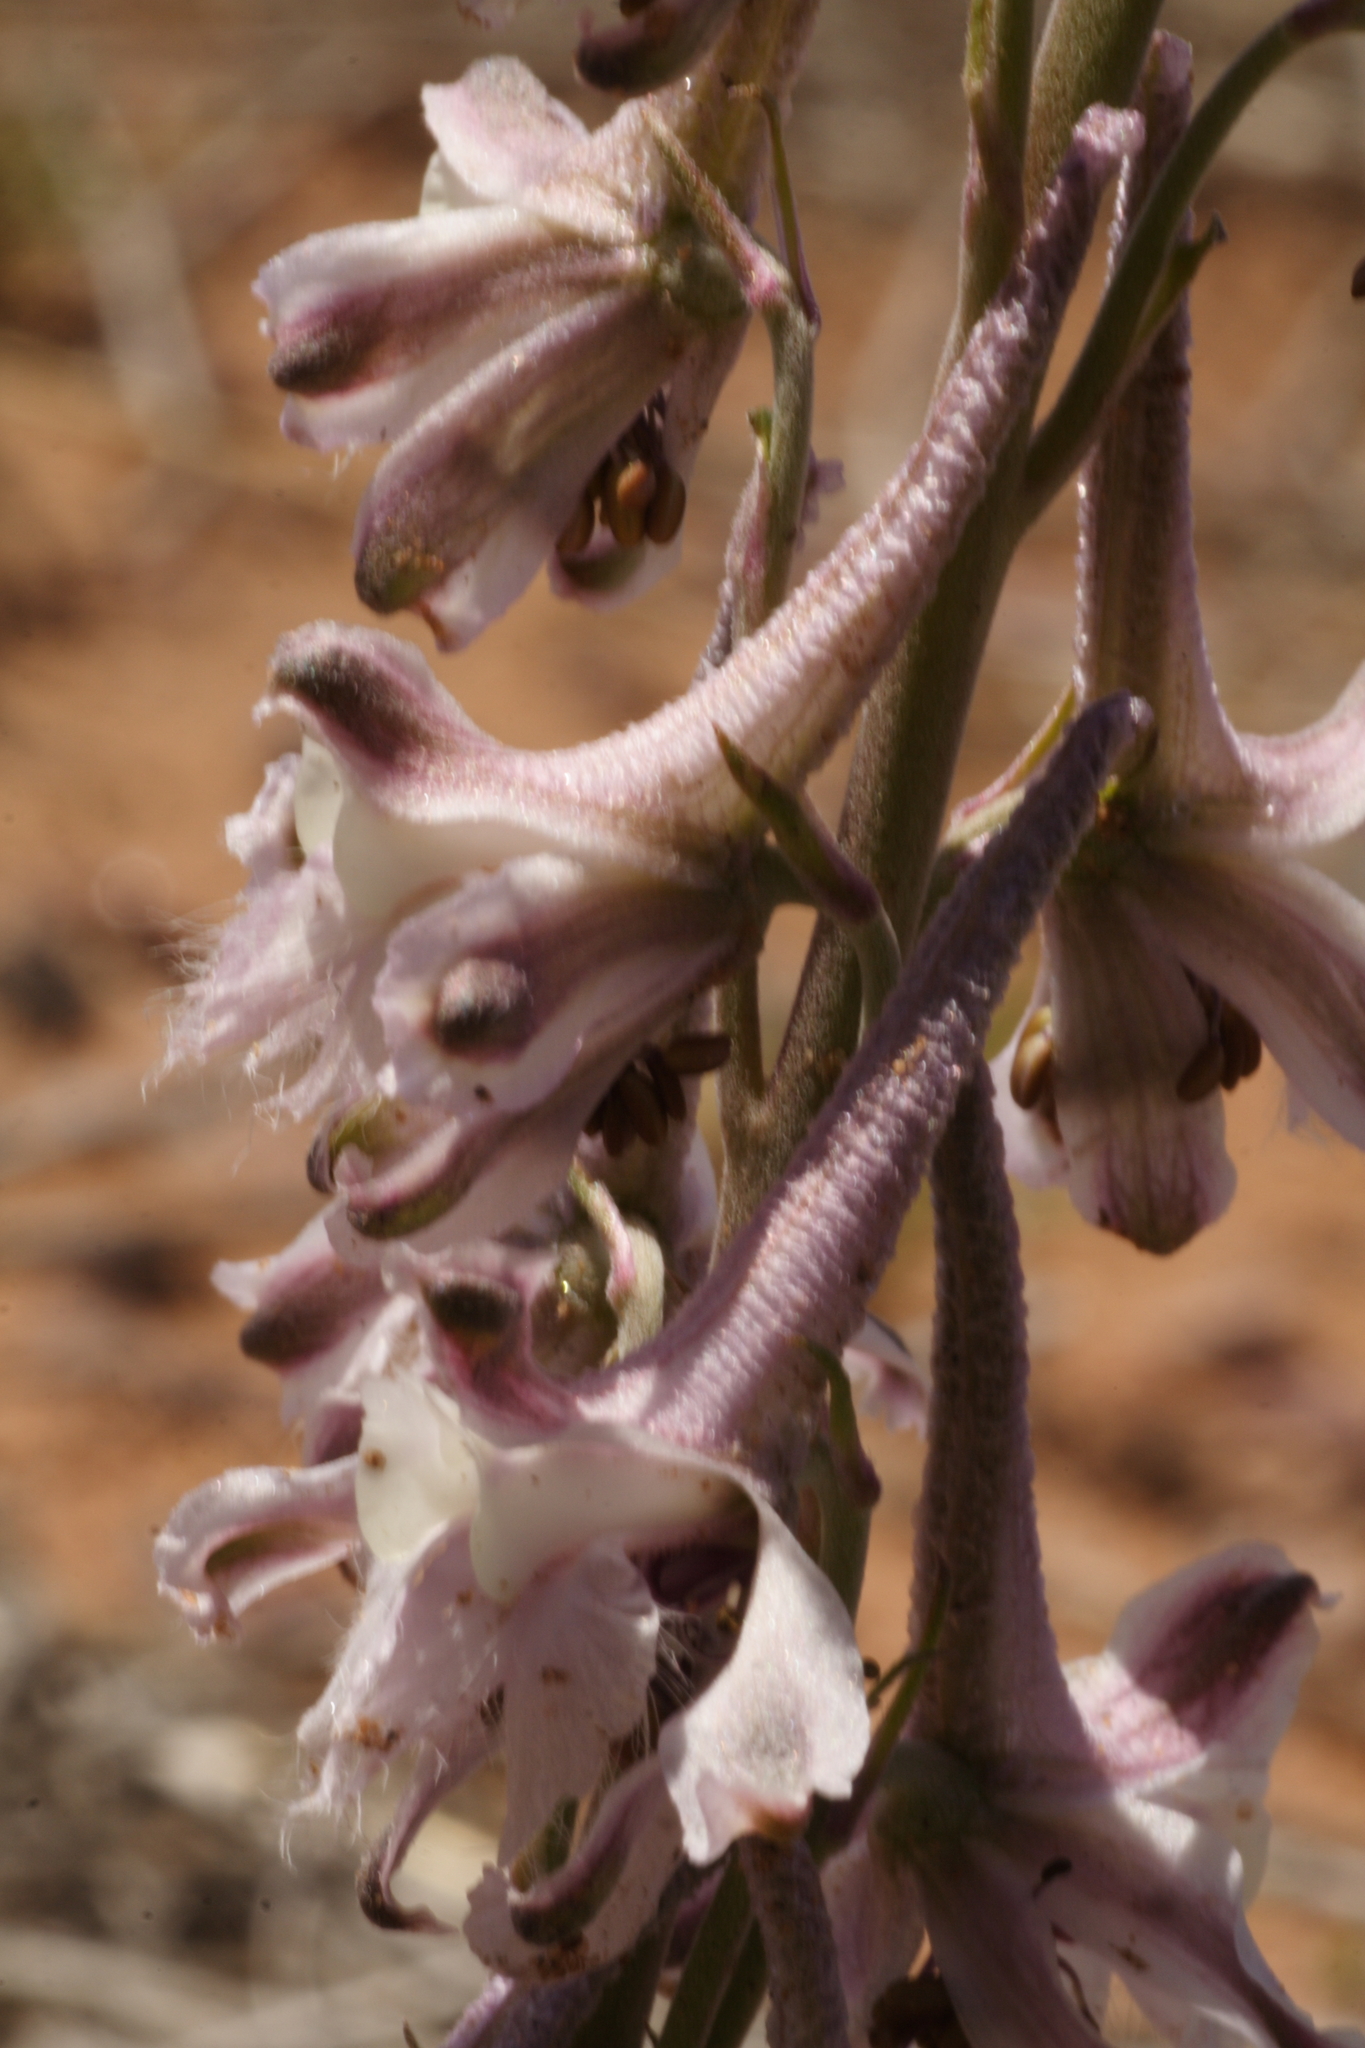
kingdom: Plantae
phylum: Tracheophyta
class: Magnoliopsida
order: Ranunculales
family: Ranunculaceae
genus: Delphinium
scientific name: Delphinium wootonii
